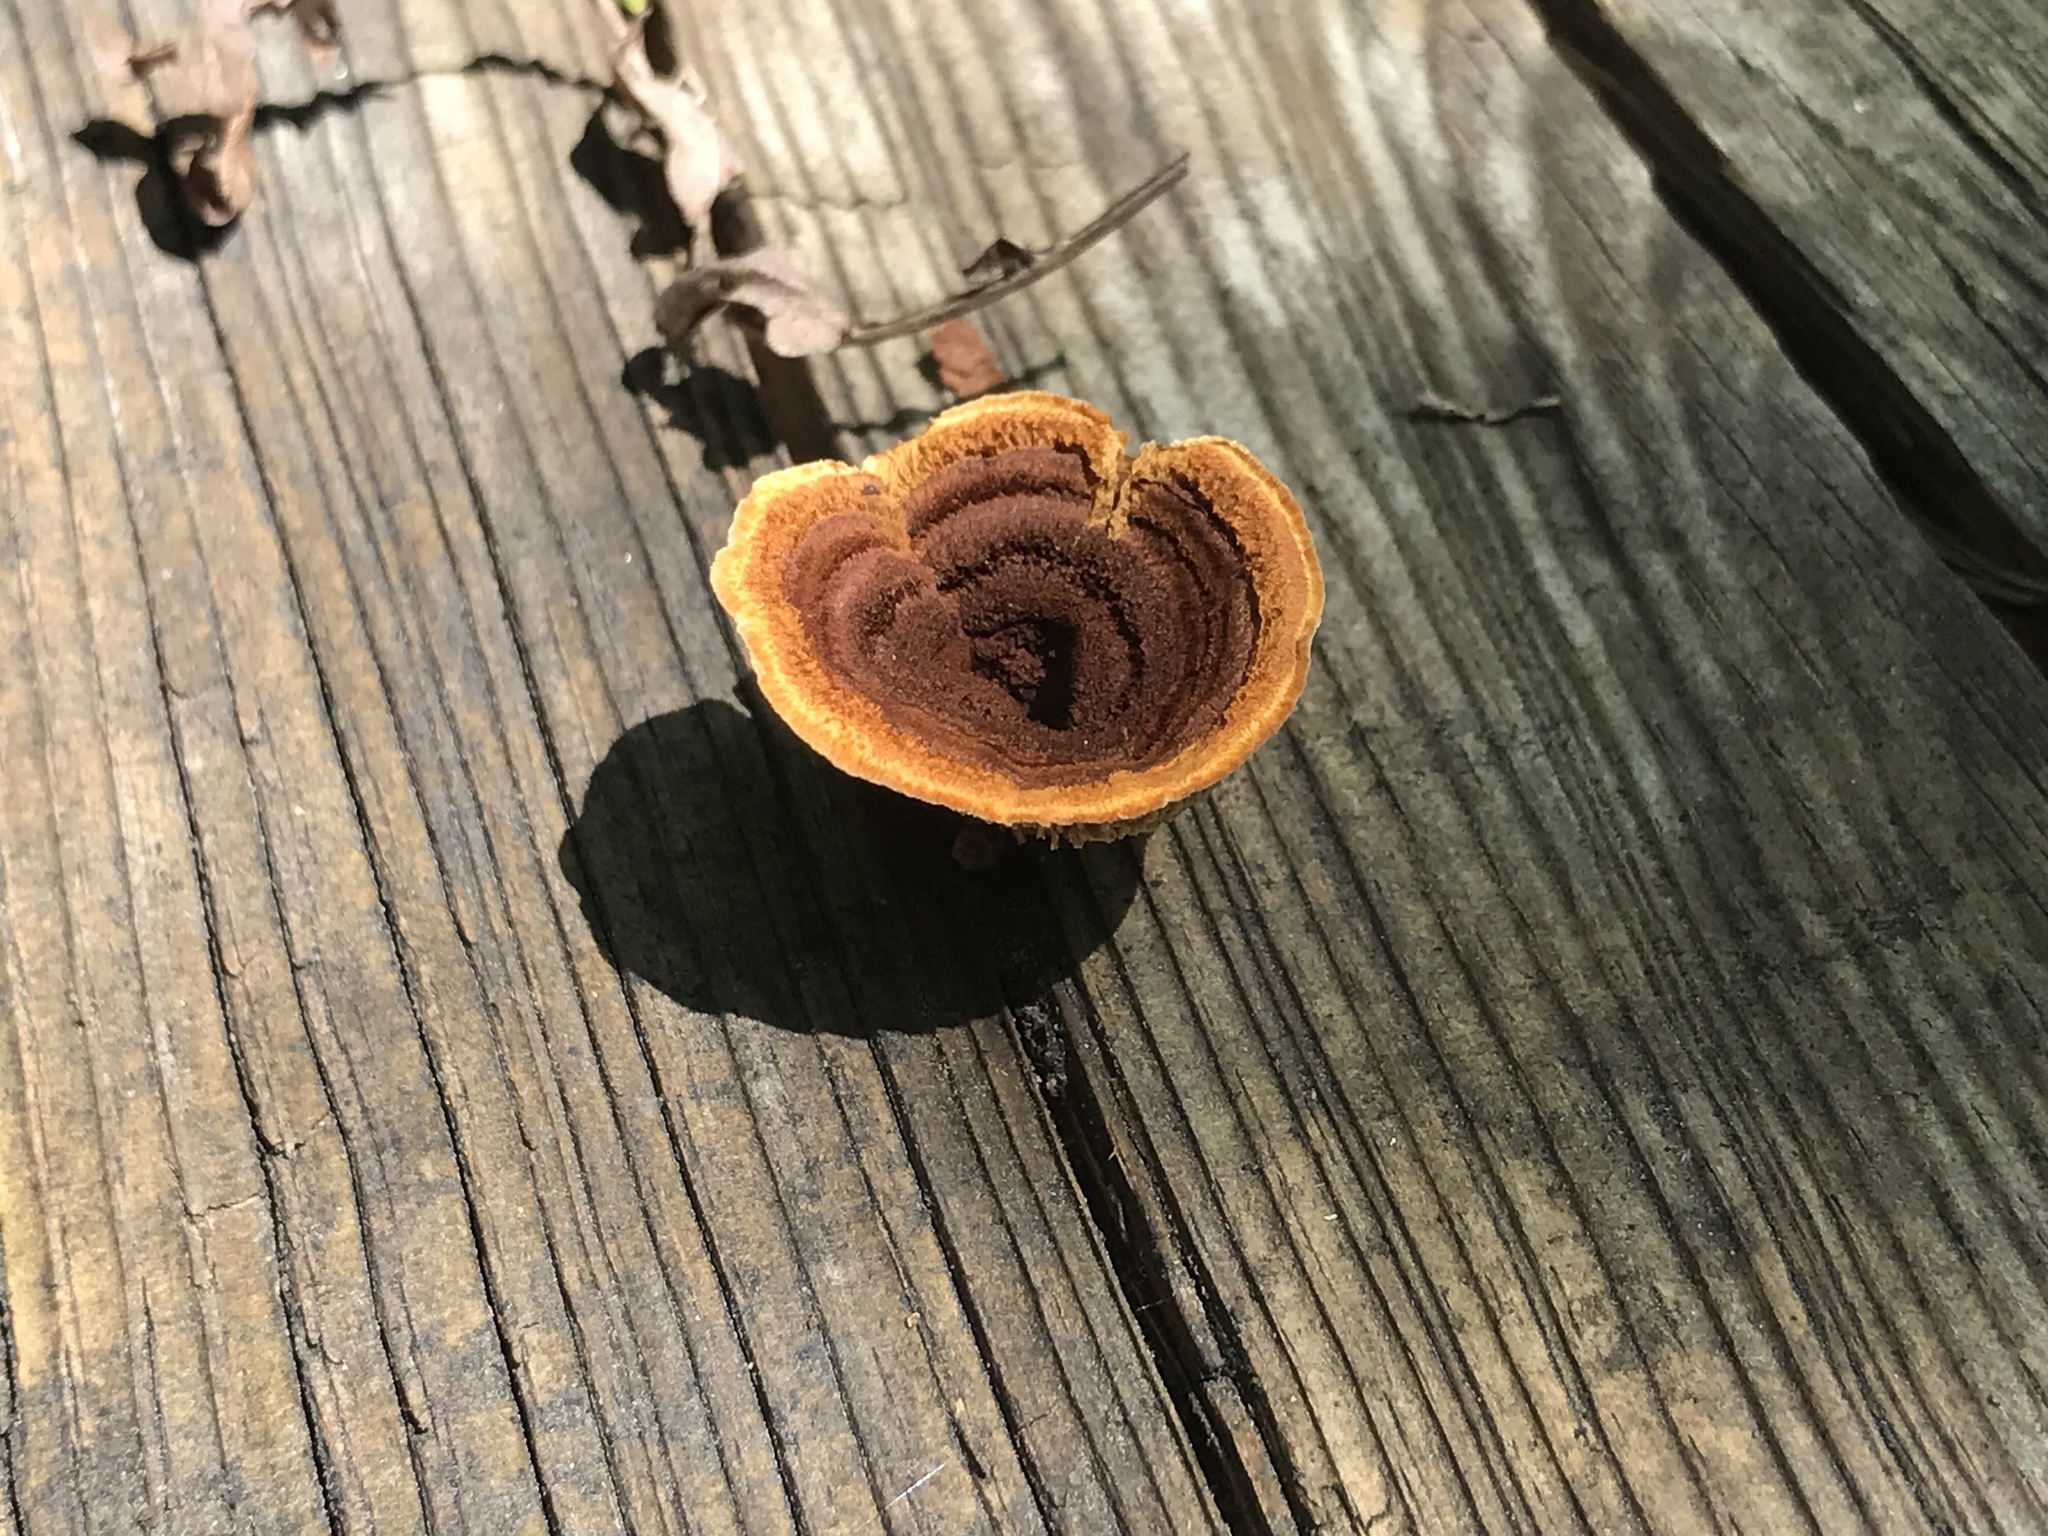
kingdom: Fungi
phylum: Basidiomycota
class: Agaricomycetes
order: Gloeophyllales
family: Gloeophyllaceae
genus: Gloeophyllum
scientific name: Gloeophyllum sepiarium
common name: Conifer mazegill
